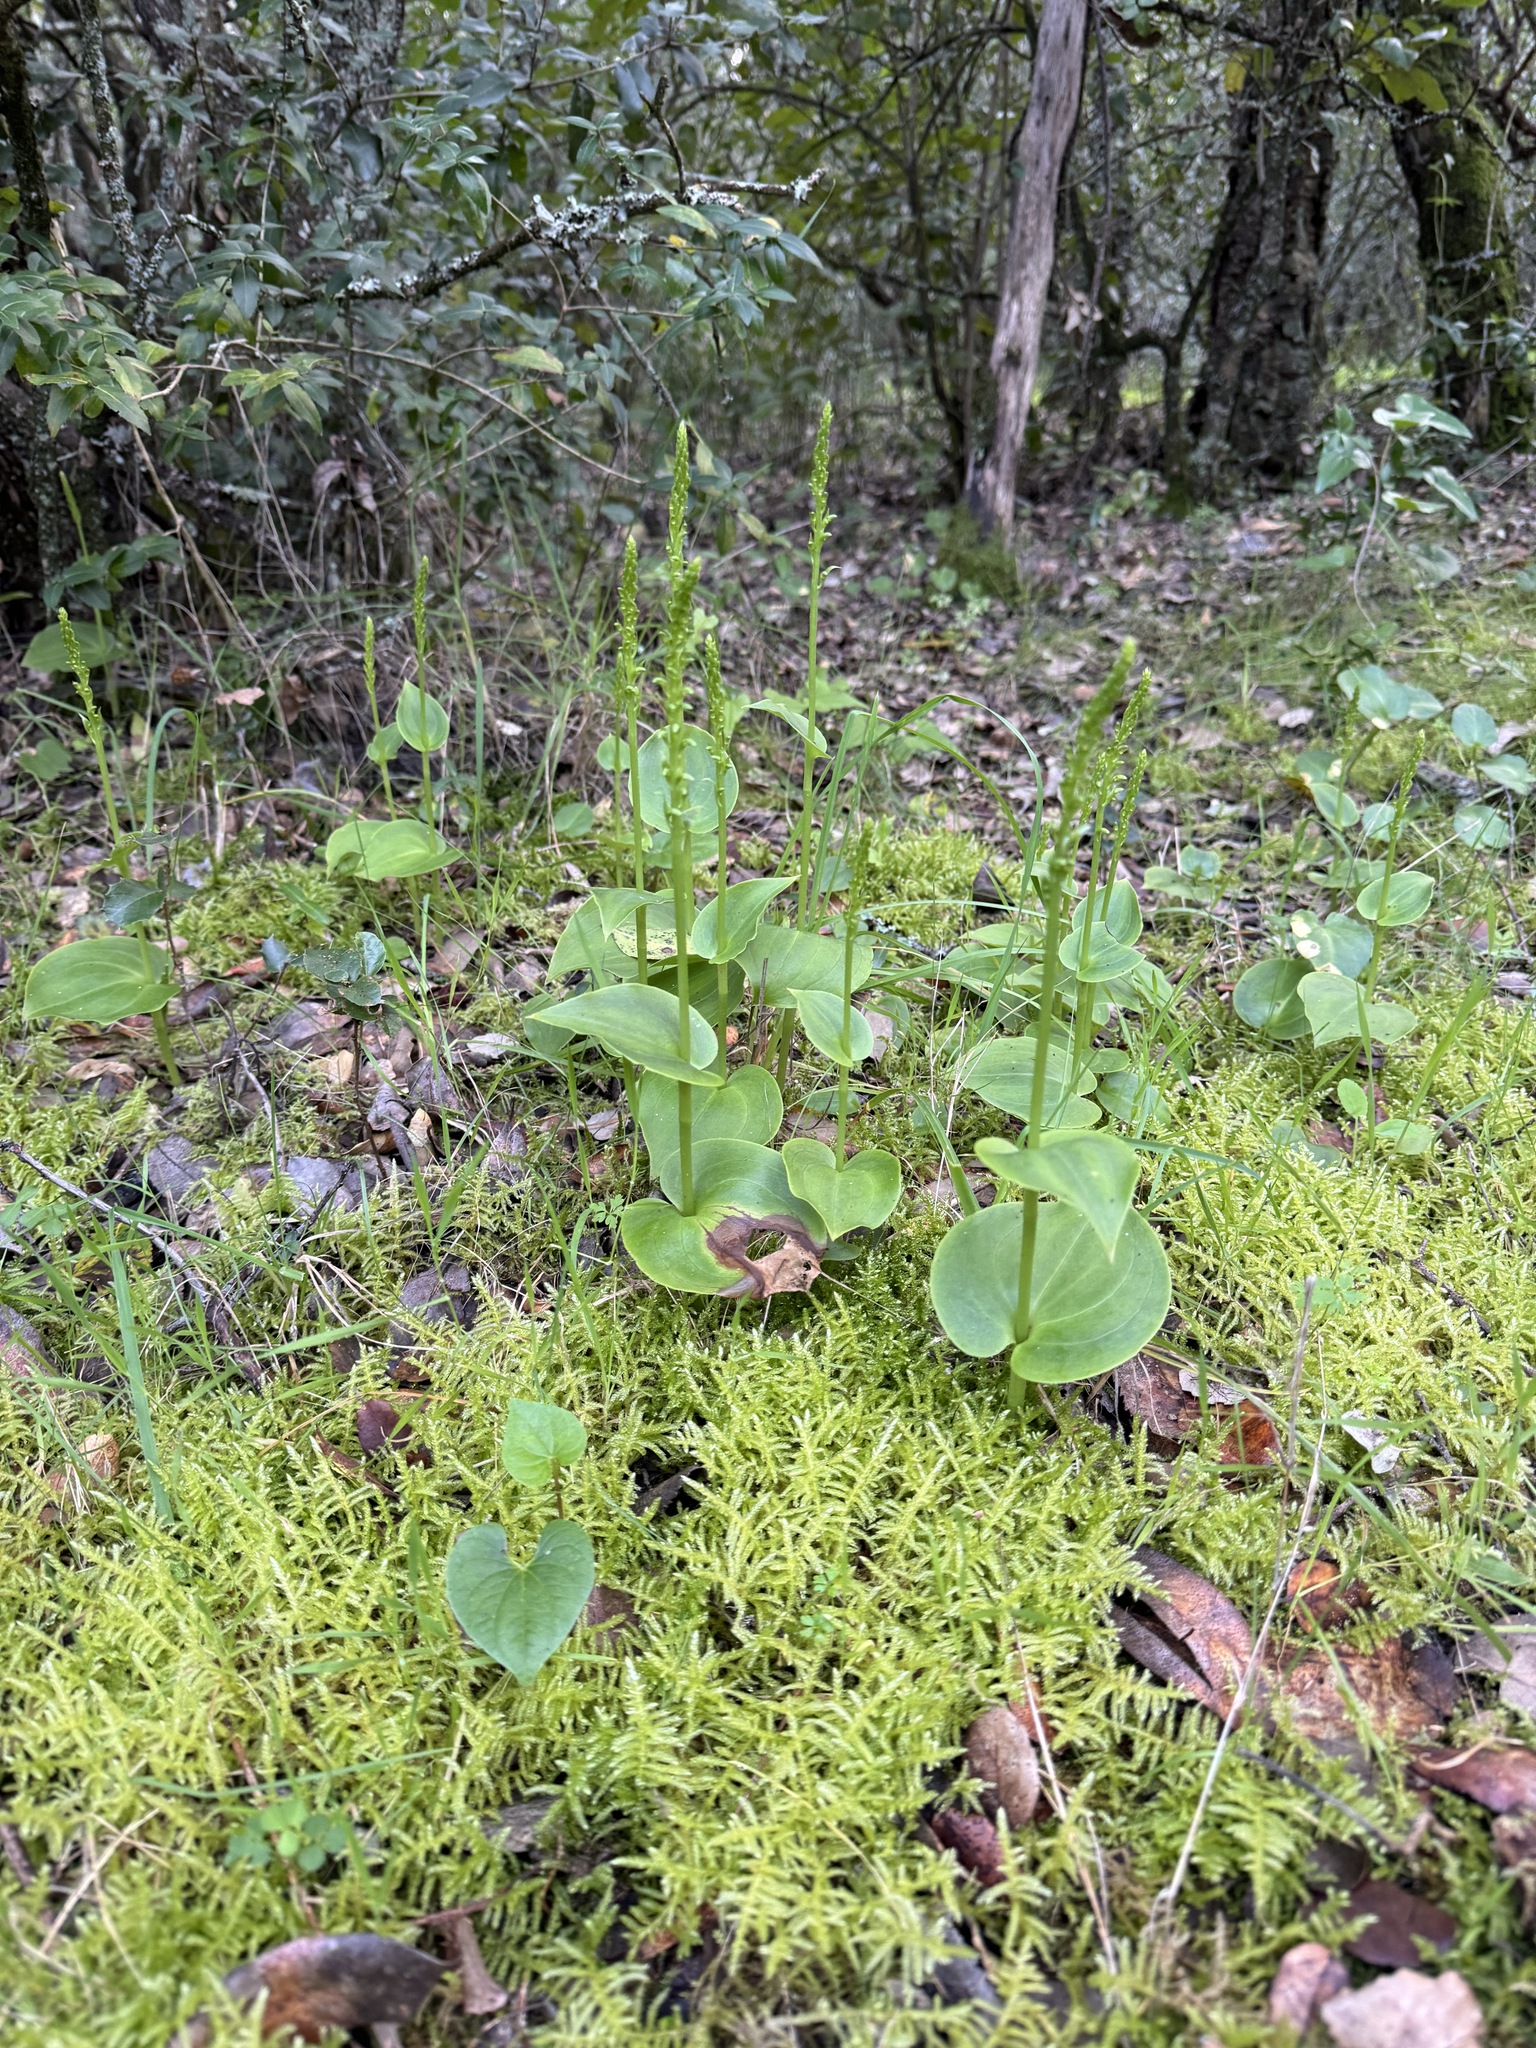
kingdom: Plantae
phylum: Tracheophyta
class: Liliopsida
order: Asparagales
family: Orchidaceae
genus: Gennaria
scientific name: Gennaria diphylla
